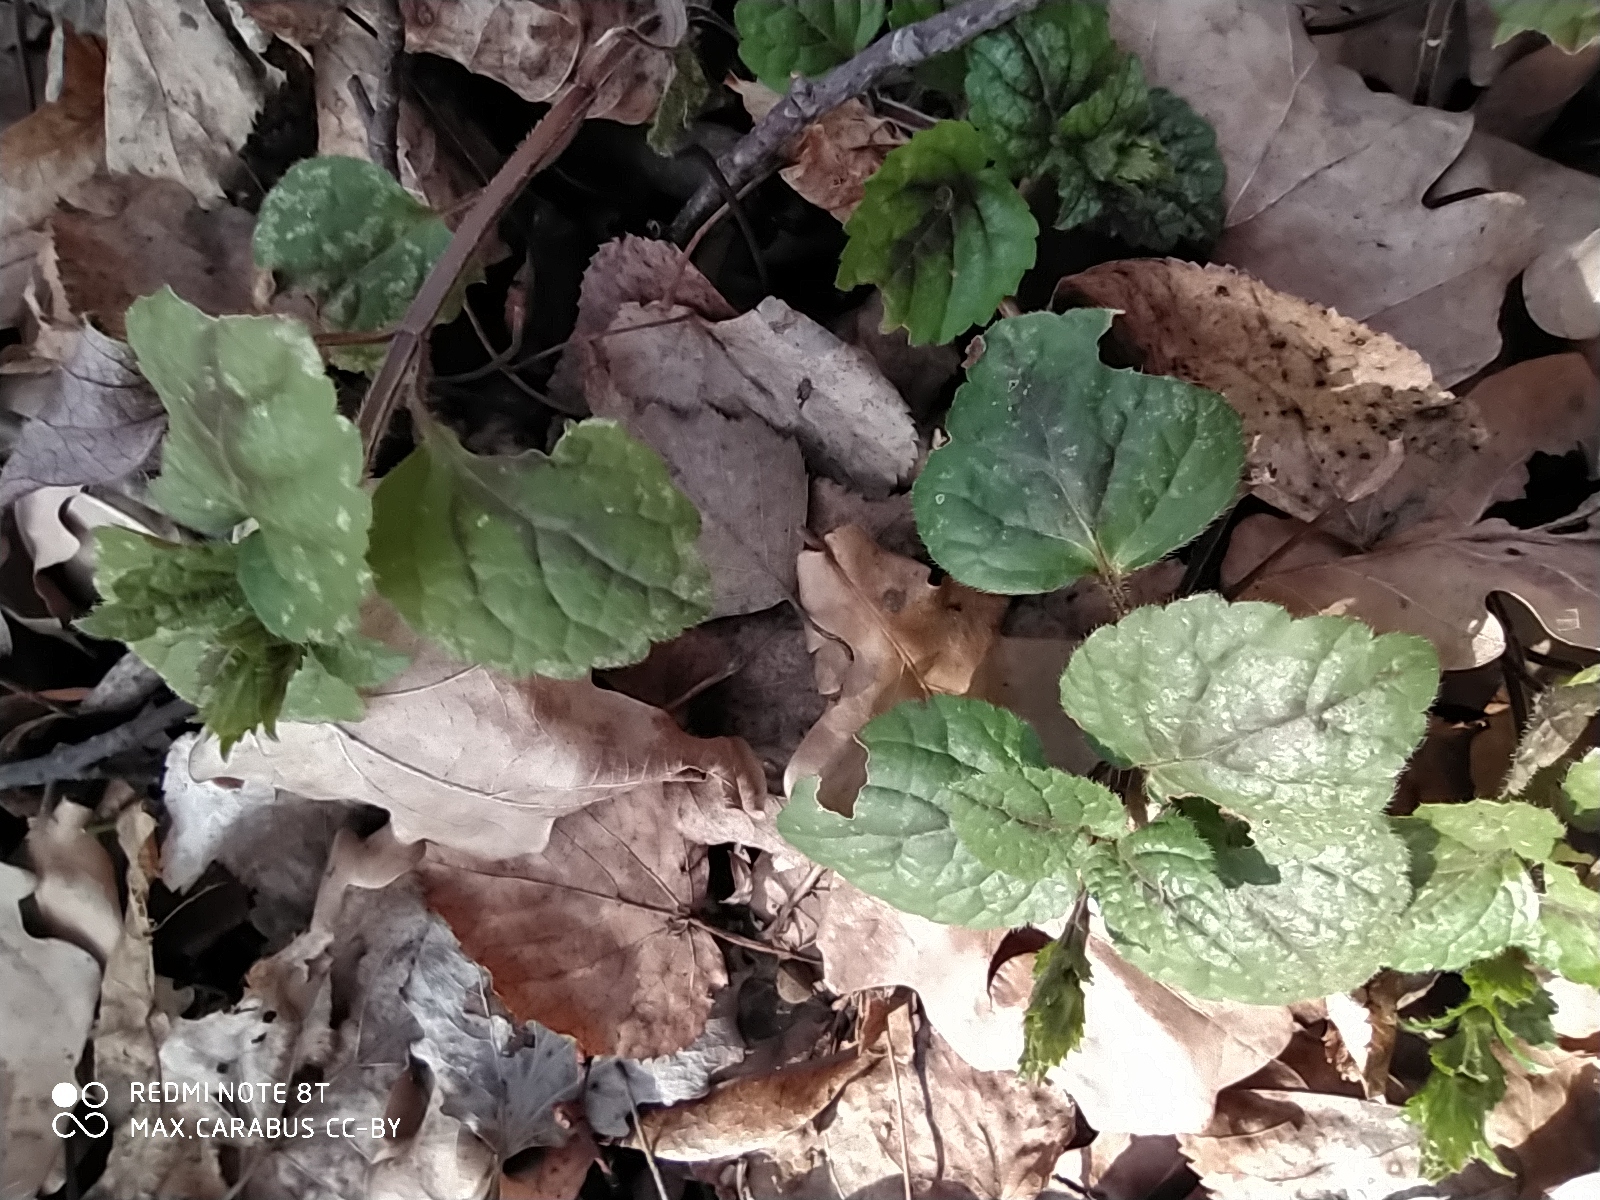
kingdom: Plantae
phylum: Tracheophyta
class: Magnoliopsida
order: Lamiales
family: Lamiaceae
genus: Lamium
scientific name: Lamium galeobdolon
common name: Yellow archangel
